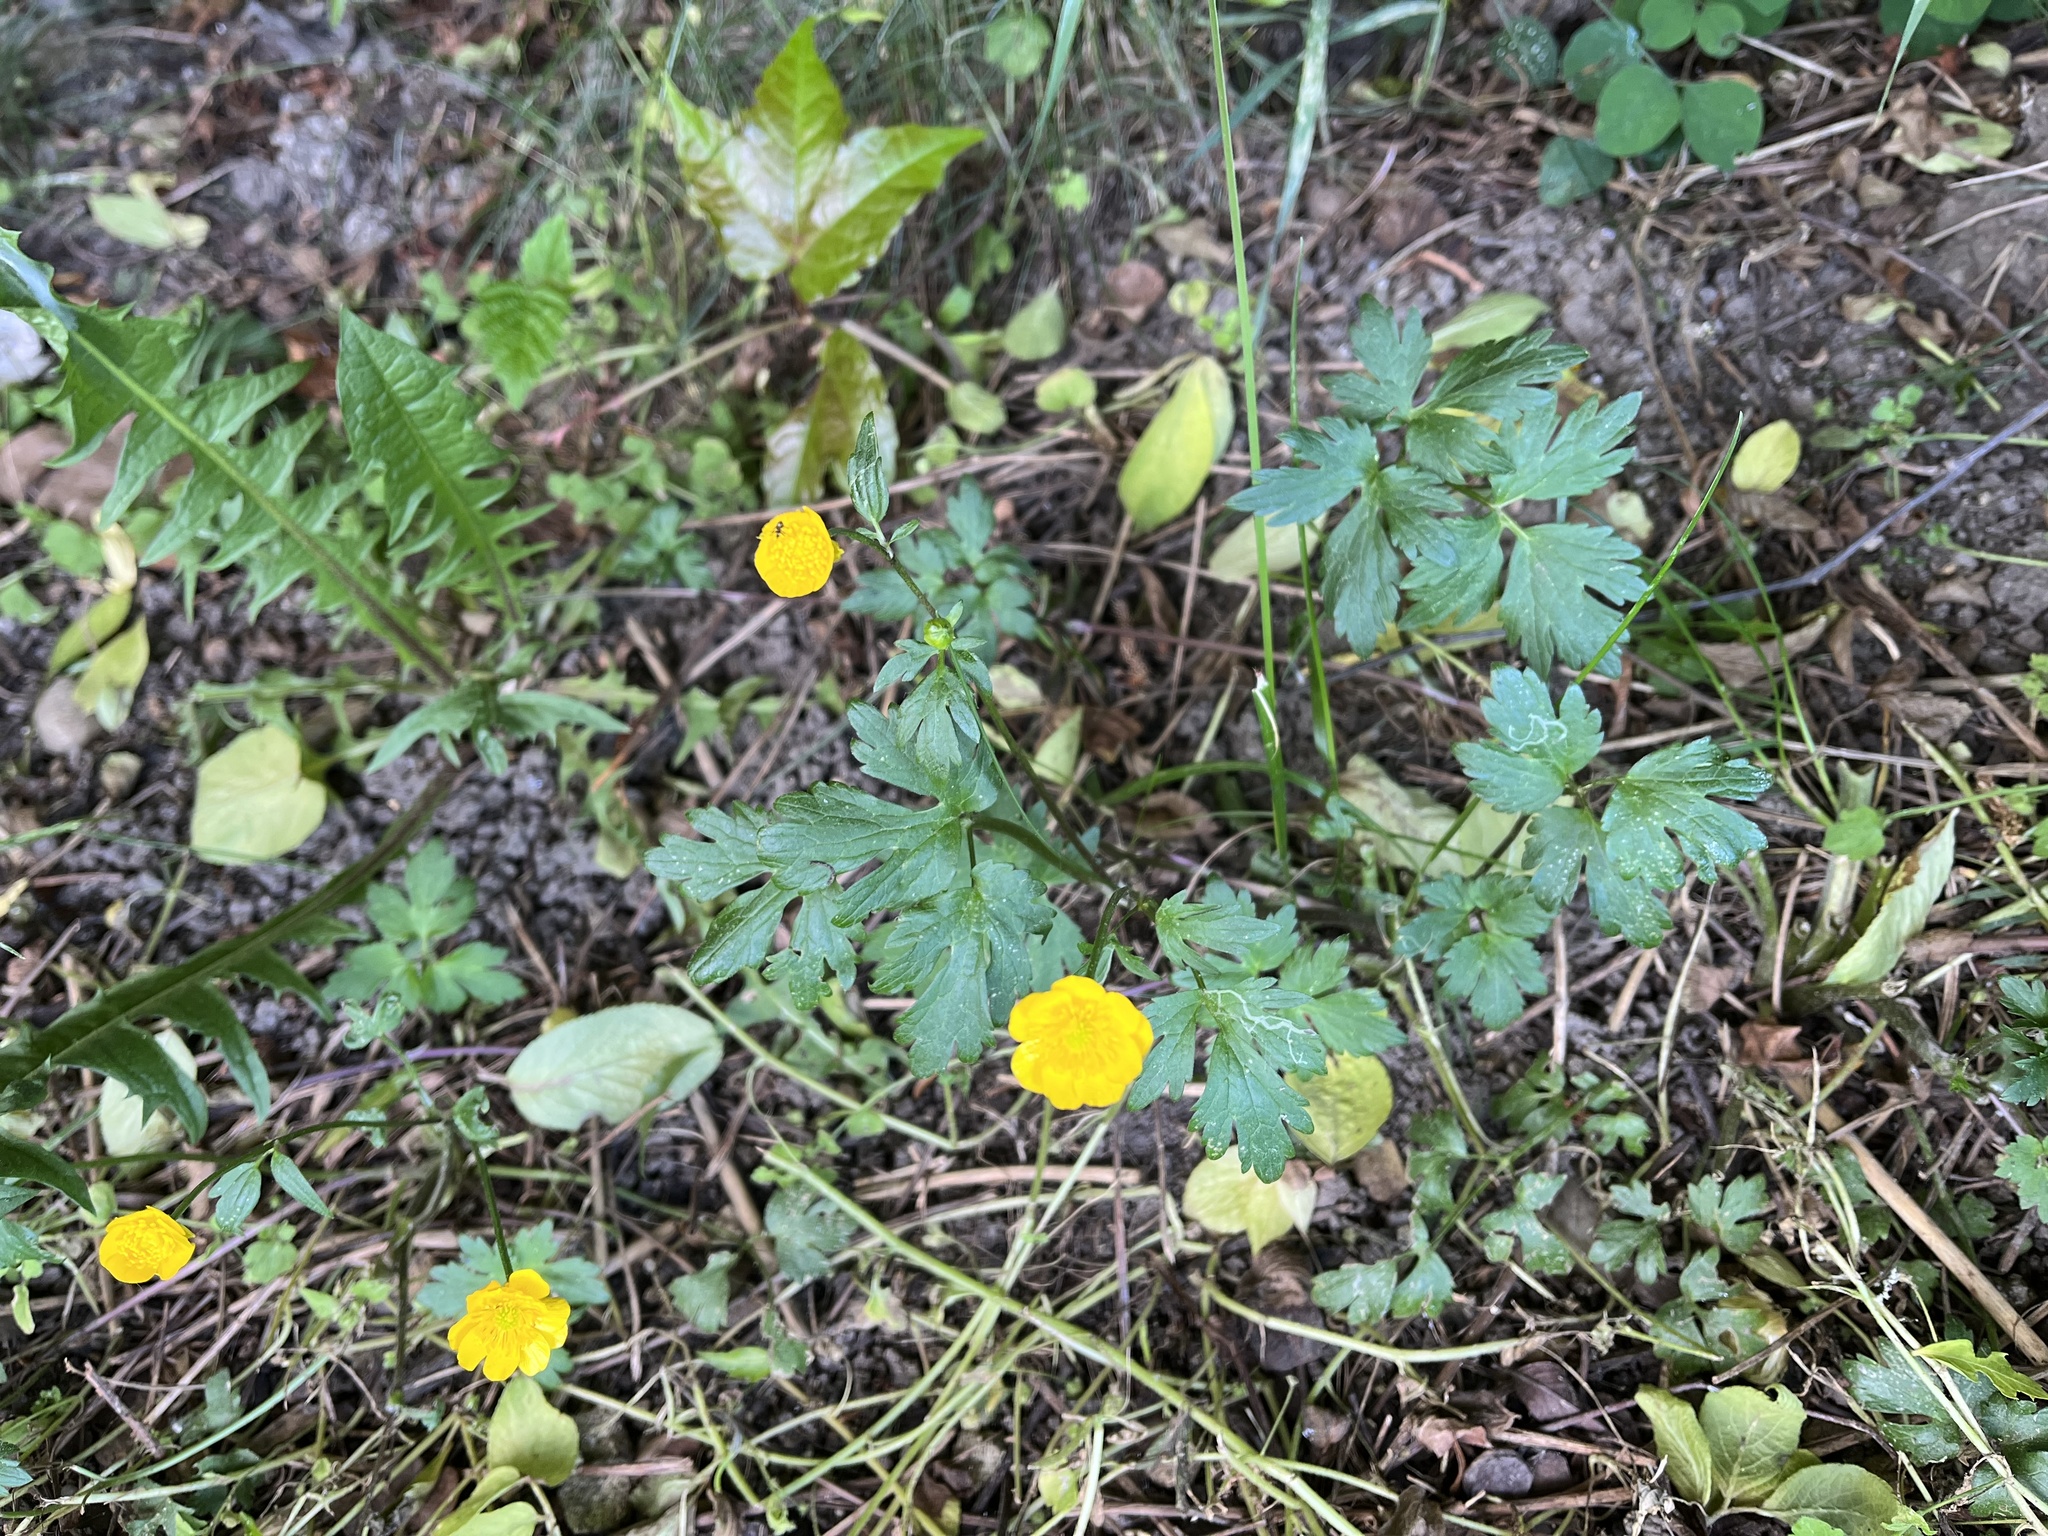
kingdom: Plantae
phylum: Tracheophyta
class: Magnoliopsida
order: Ranunculales
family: Ranunculaceae
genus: Ranunculus
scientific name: Ranunculus repens
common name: Creeping buttercup
